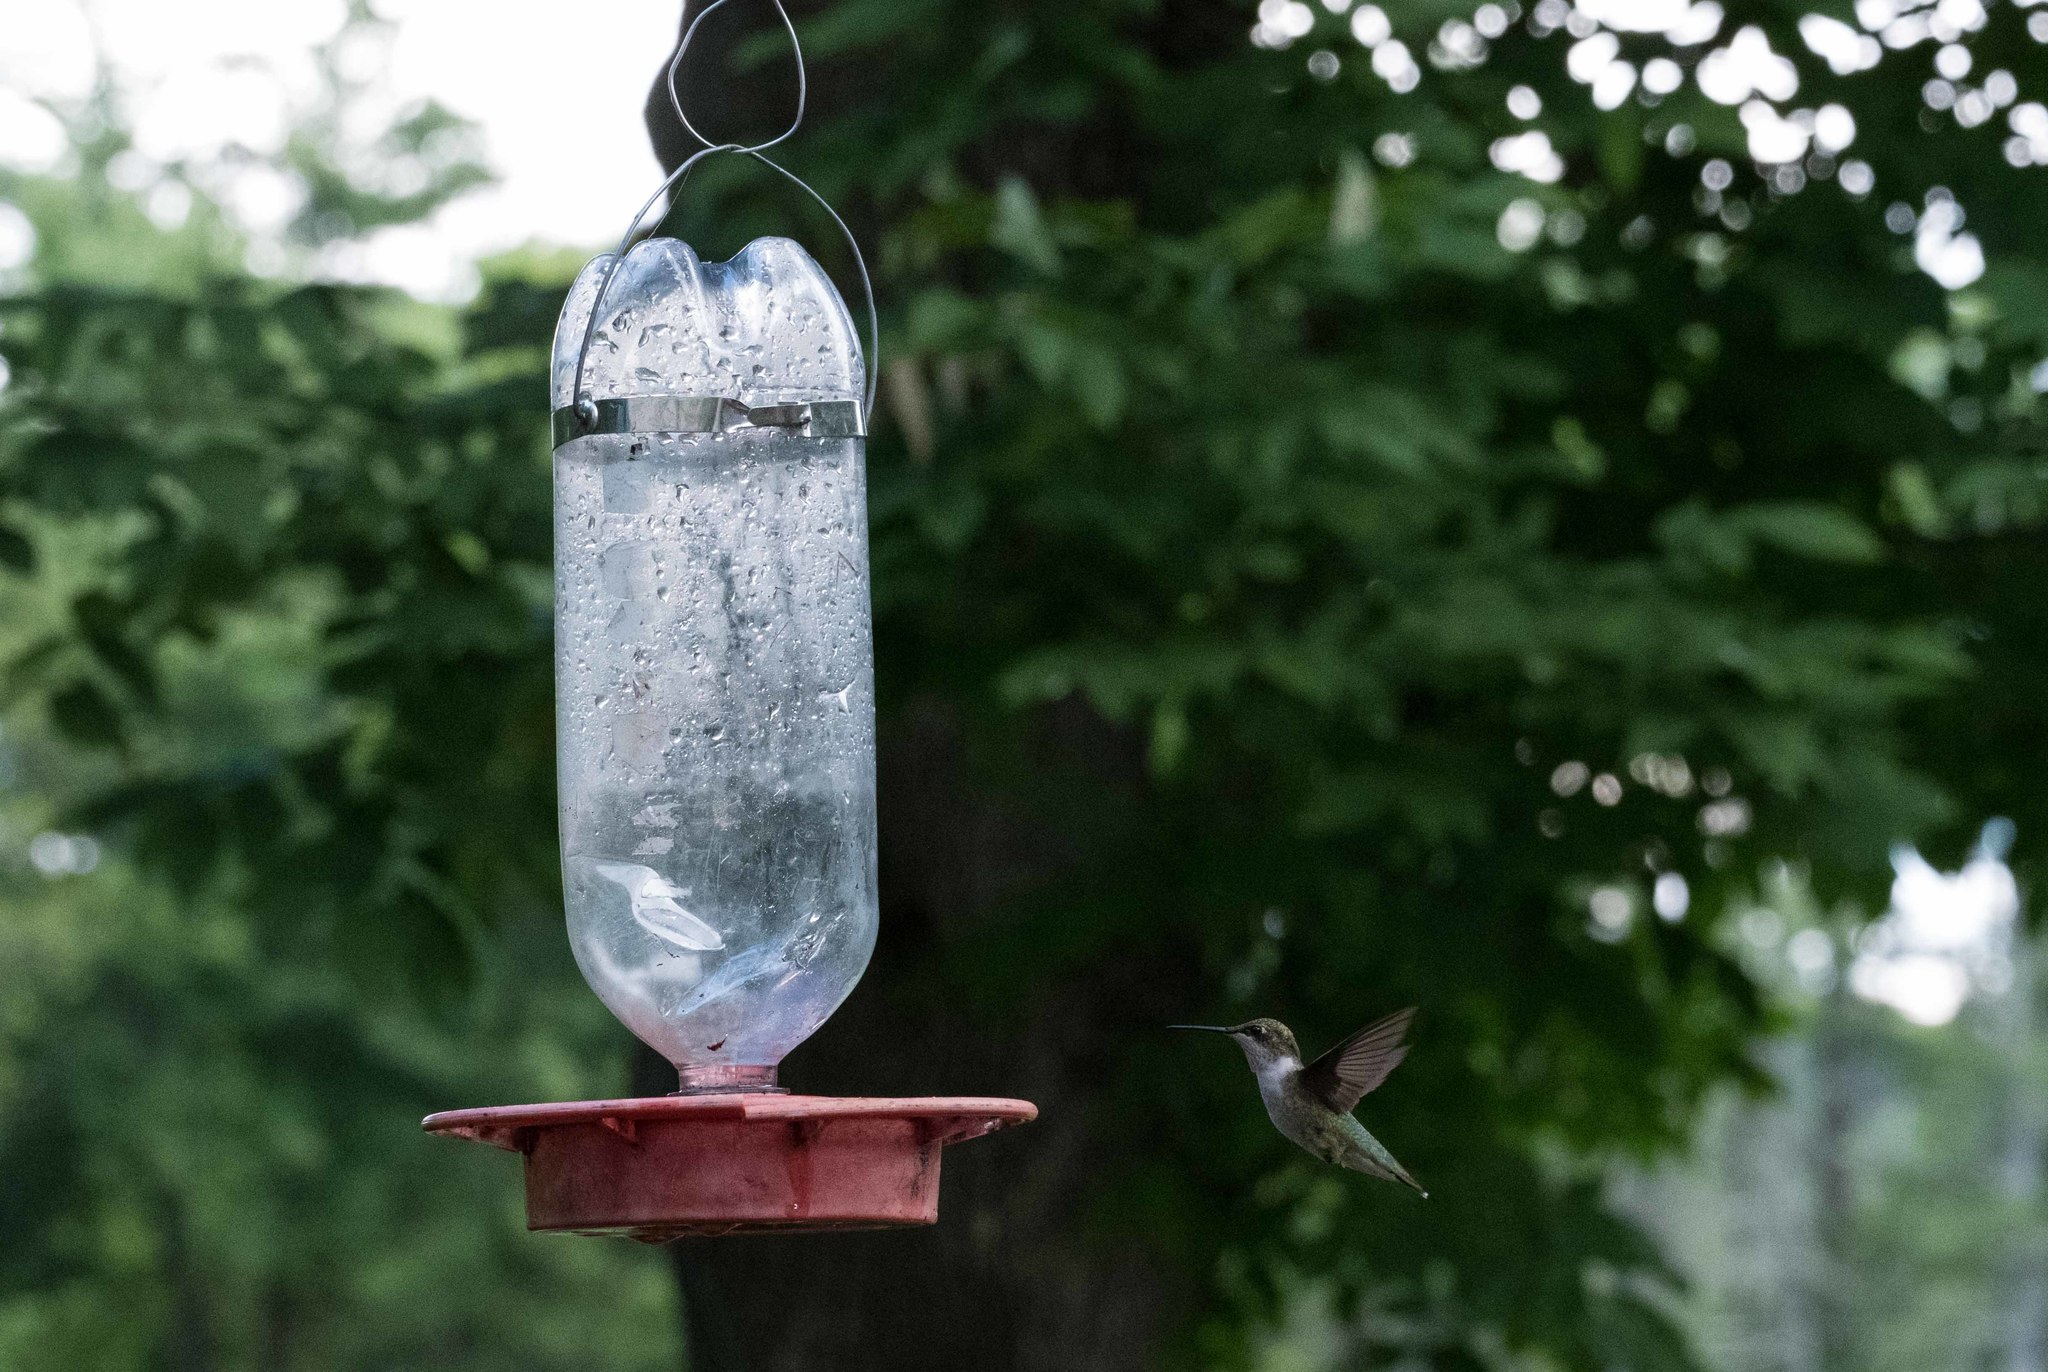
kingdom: Animalia
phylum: Chordata
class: Aves
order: Apodiformes
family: Trochilidae
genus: Archilochus
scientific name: Archilochus colubris
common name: Ruby-throated hummingbird
